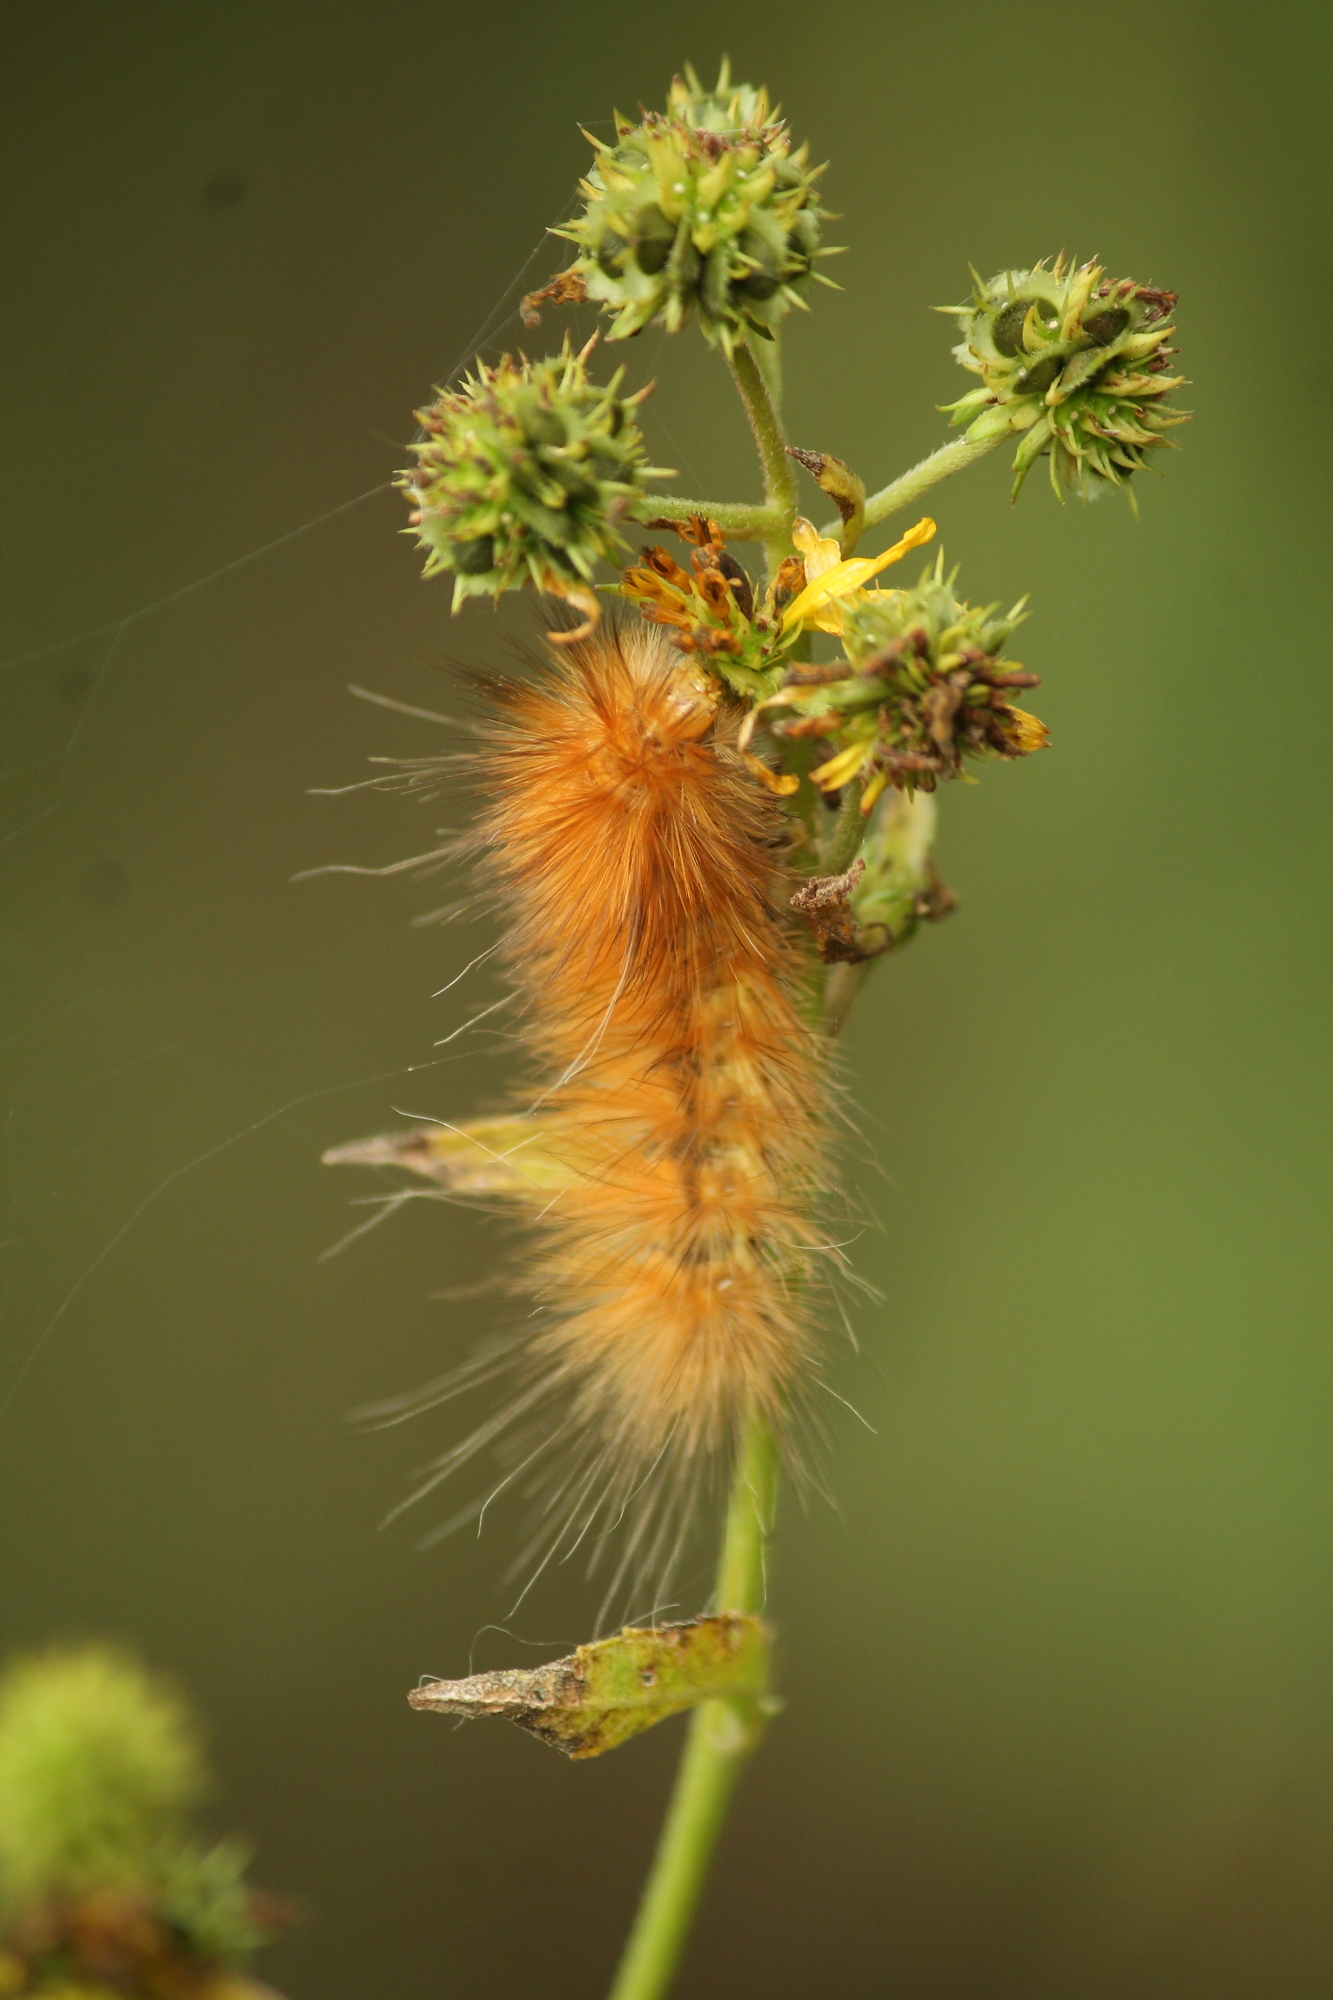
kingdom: Animalia
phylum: Arthropoda
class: Insecta
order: Lepidoptera
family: Erebidae
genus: Spilosoma
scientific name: Spilosoma virginica
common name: Virginia tiger moth
